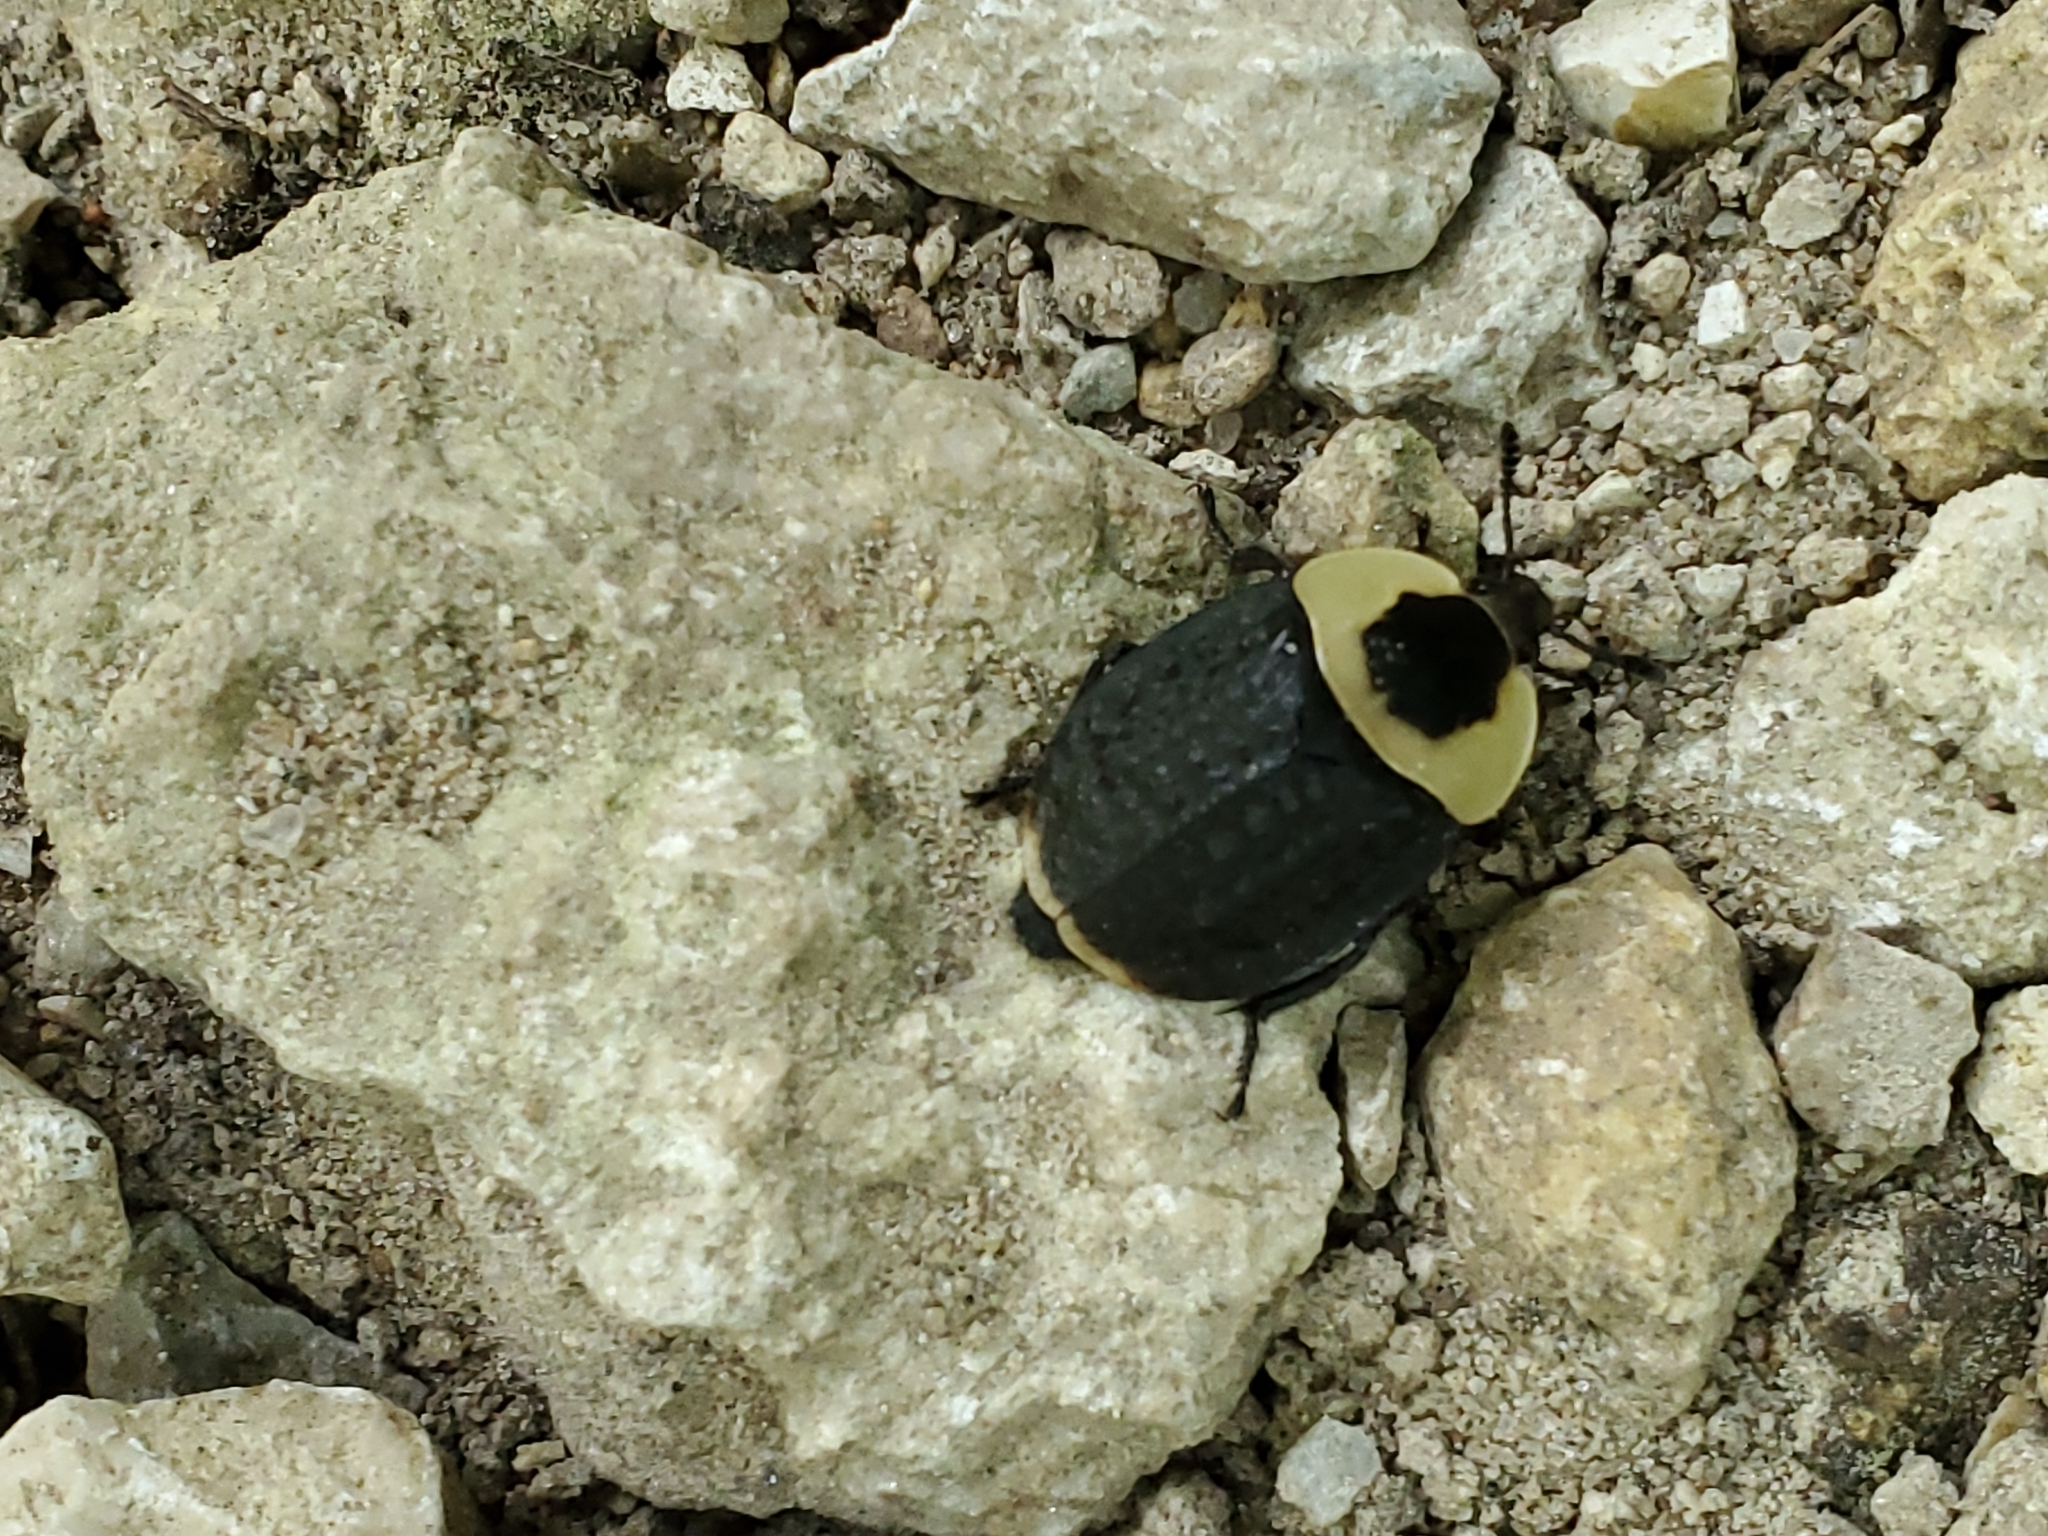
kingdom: Animalia
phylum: Arthropoda
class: Insecta
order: Coleoptera
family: Staphylinidae
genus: Necrophila
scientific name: Necrophila americana
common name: American carrion beetle
